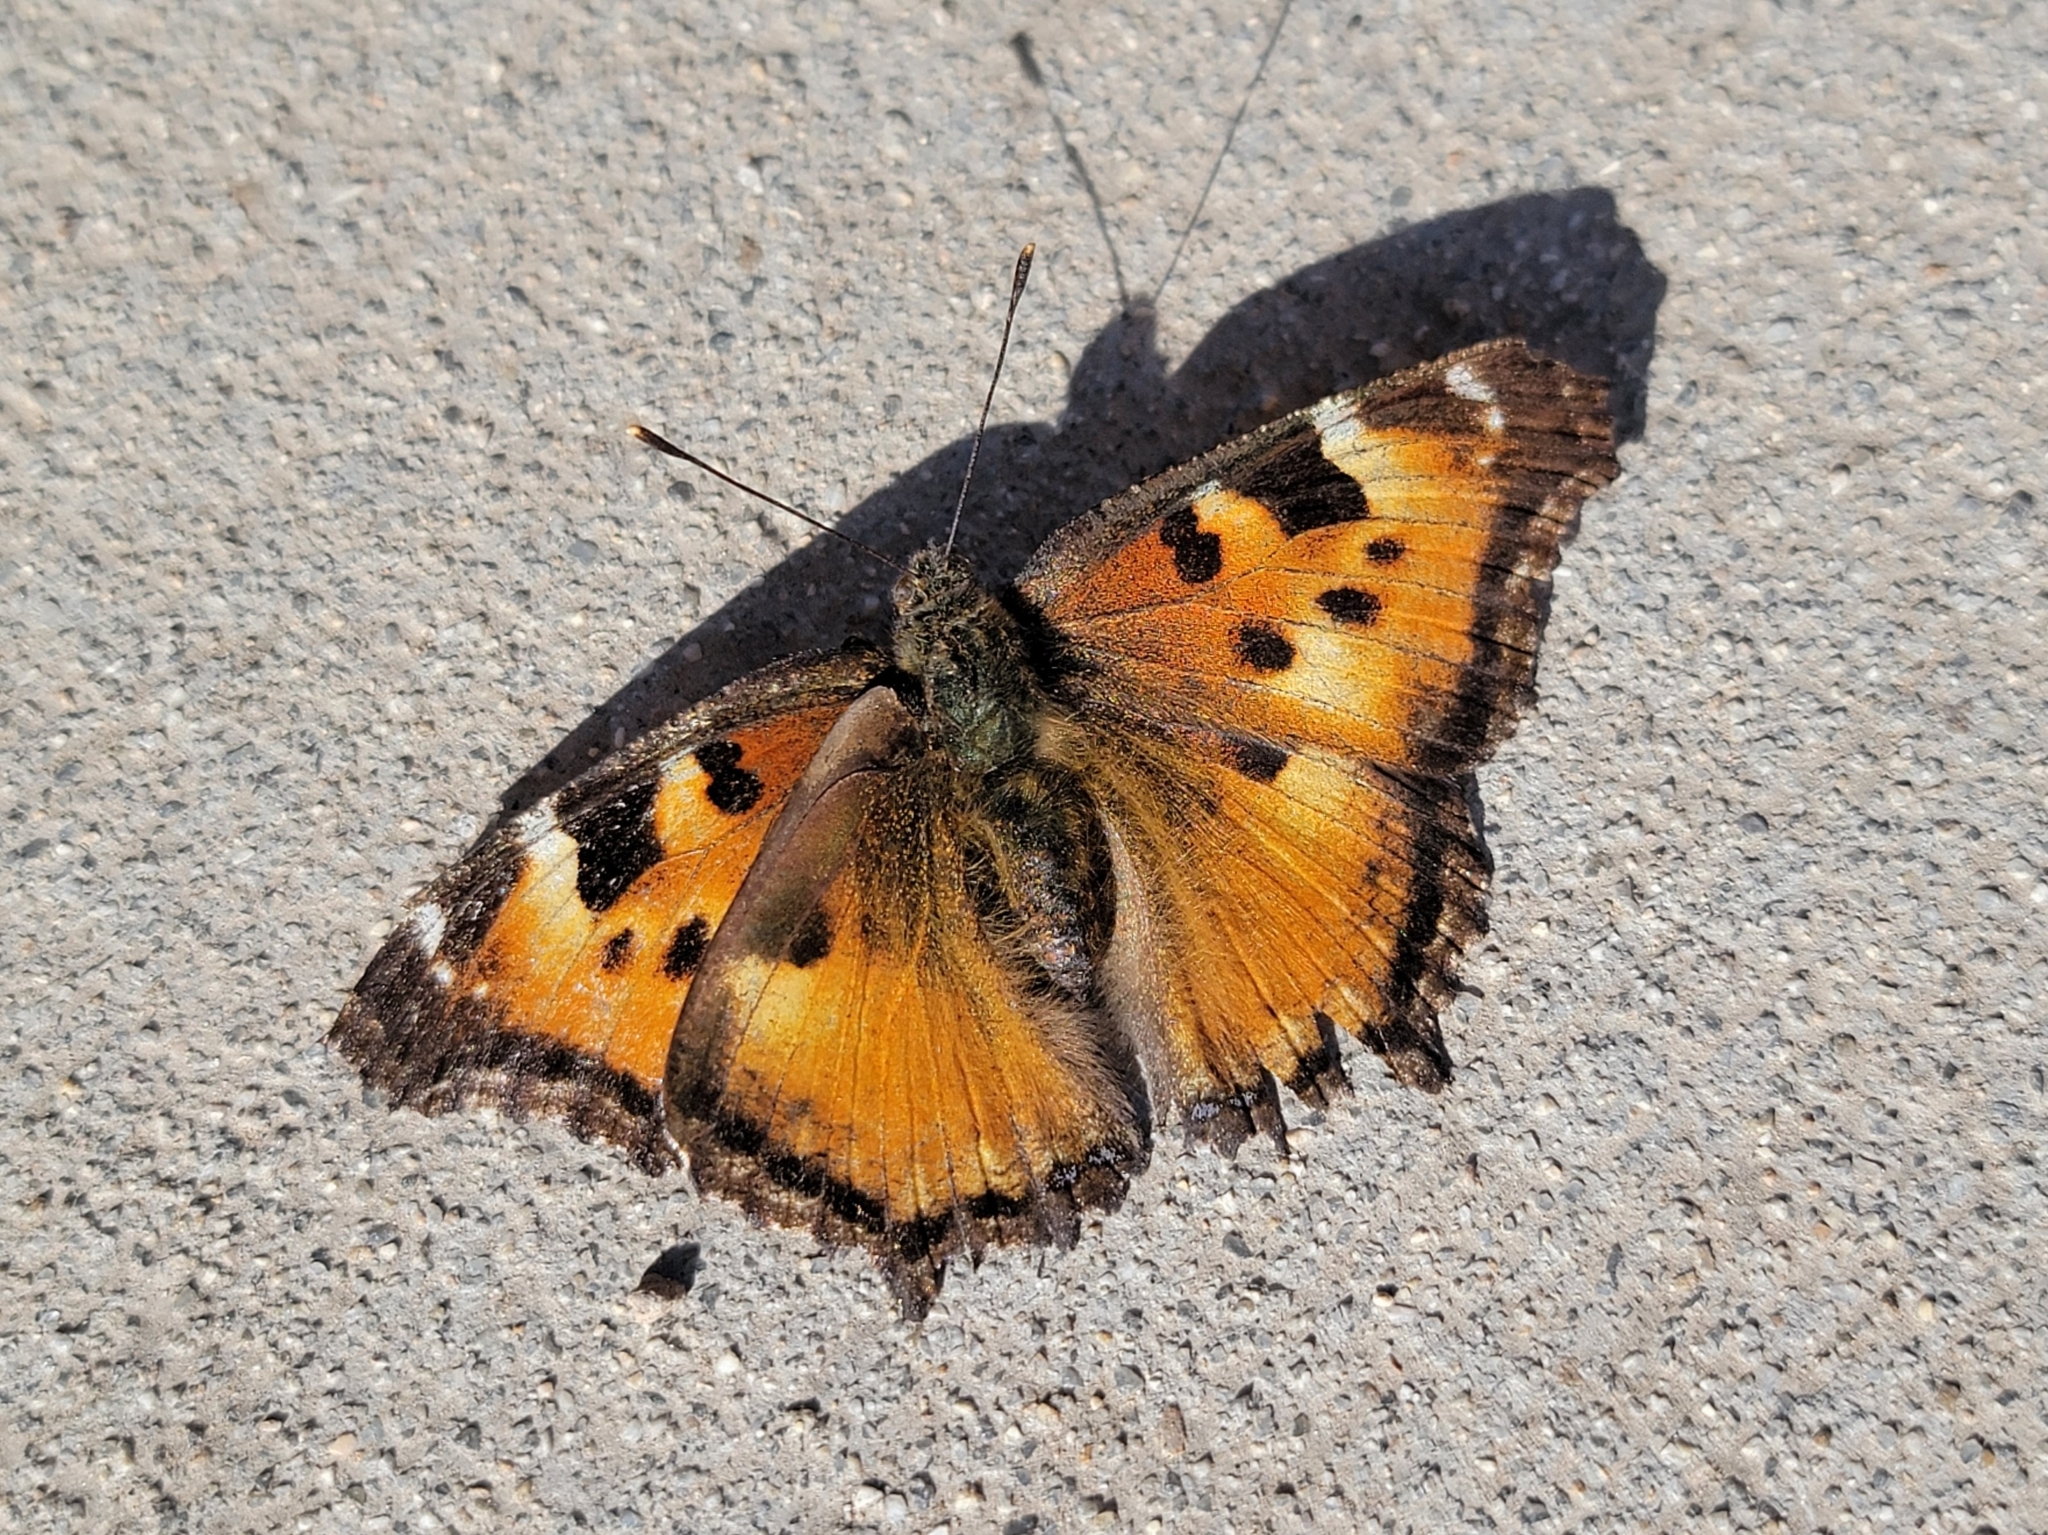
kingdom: Animalia
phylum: Arthropoda
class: Insecta
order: Lepidoptera
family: Nymphalidae
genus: Nymphalis
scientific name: Nymphalis californica
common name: California tortoiseshell
